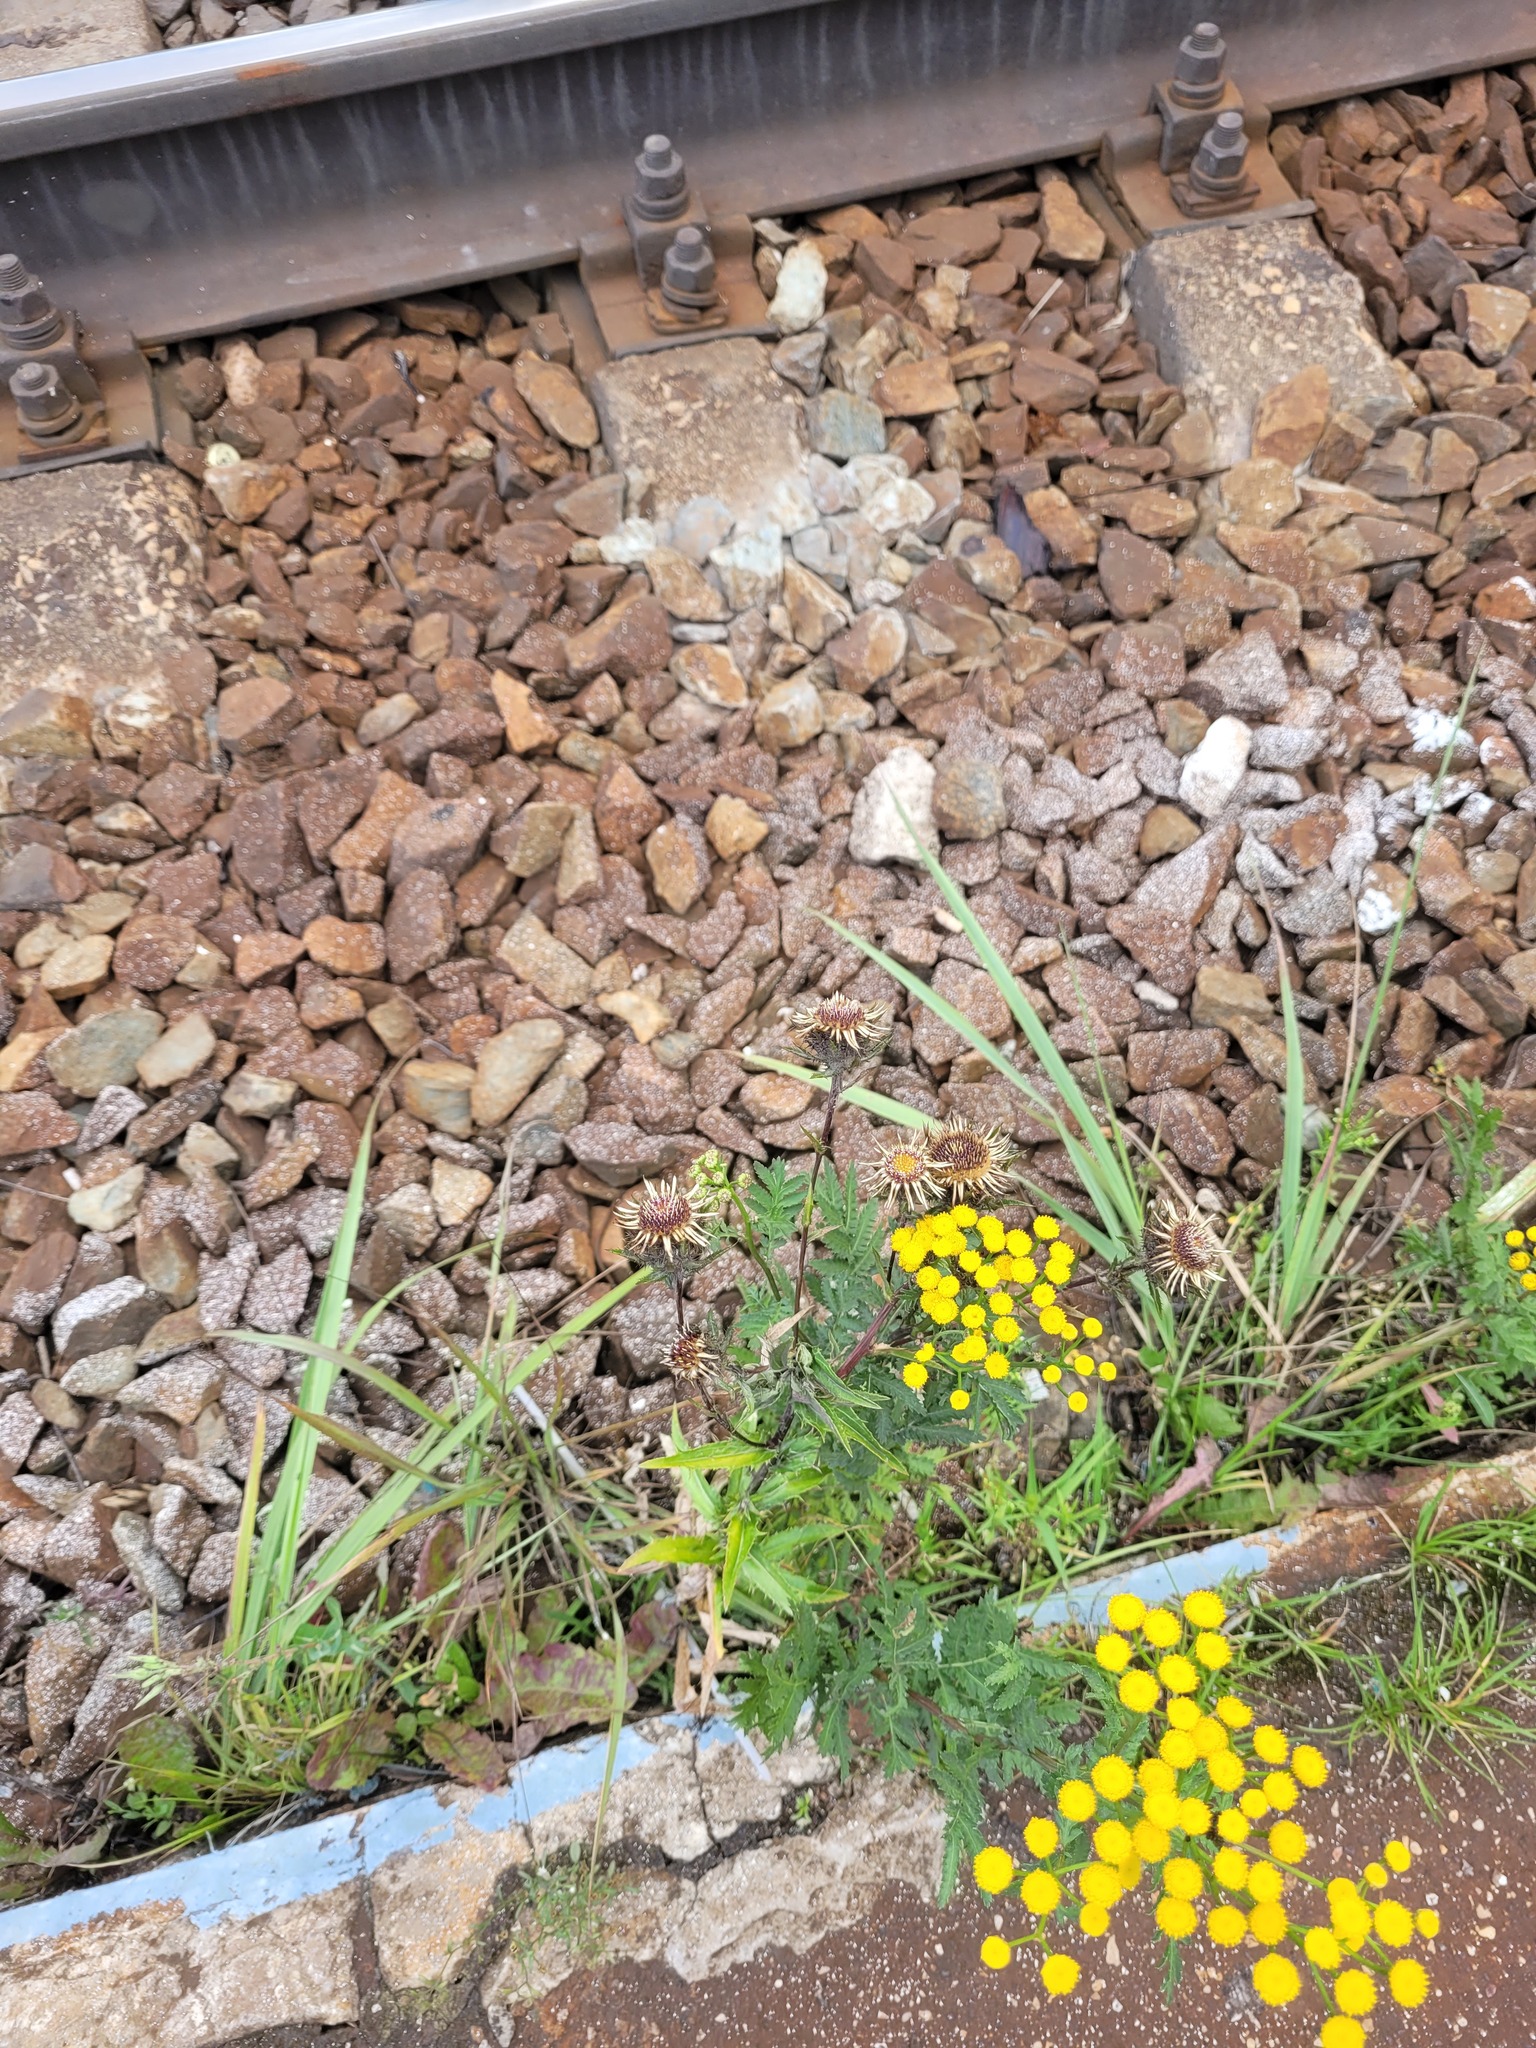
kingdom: Plantae
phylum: Tracheophyta
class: Magnoliopsida
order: Asterales
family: Asteraceae
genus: Carlina
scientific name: Carlina biebersteinii
